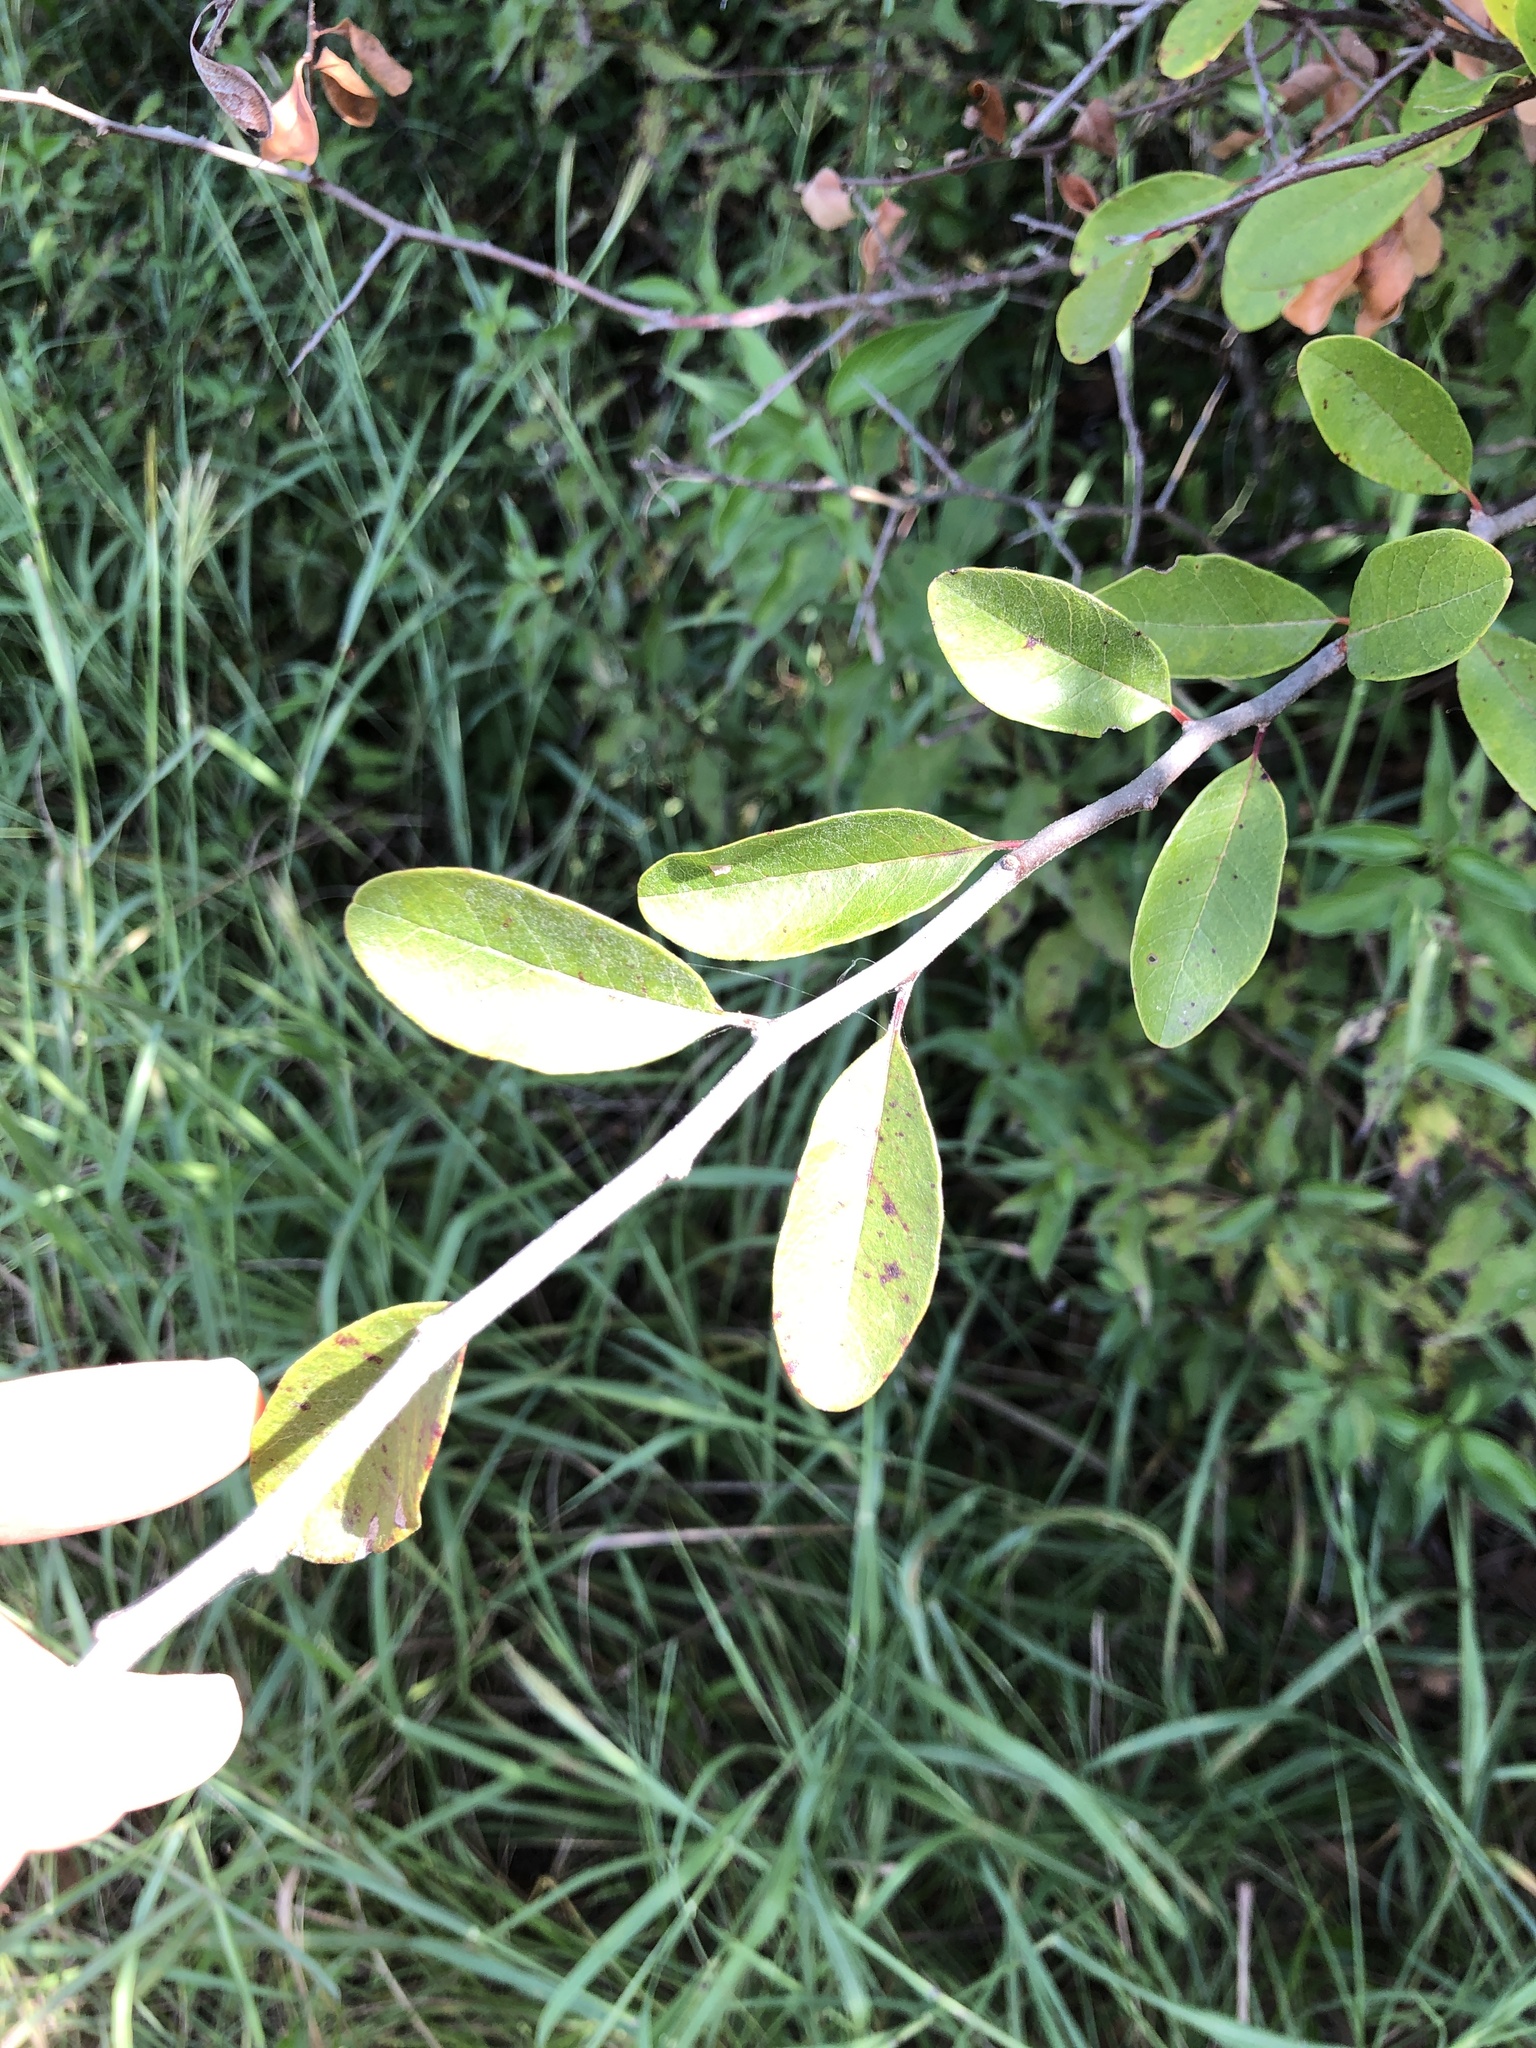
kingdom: Plantae
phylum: Tracheophyta
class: Magnoliopsida
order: Ericales
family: Sapotaceae
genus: Sideroxylon
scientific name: Sideroxylon lanuginosum
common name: Chittamwood
